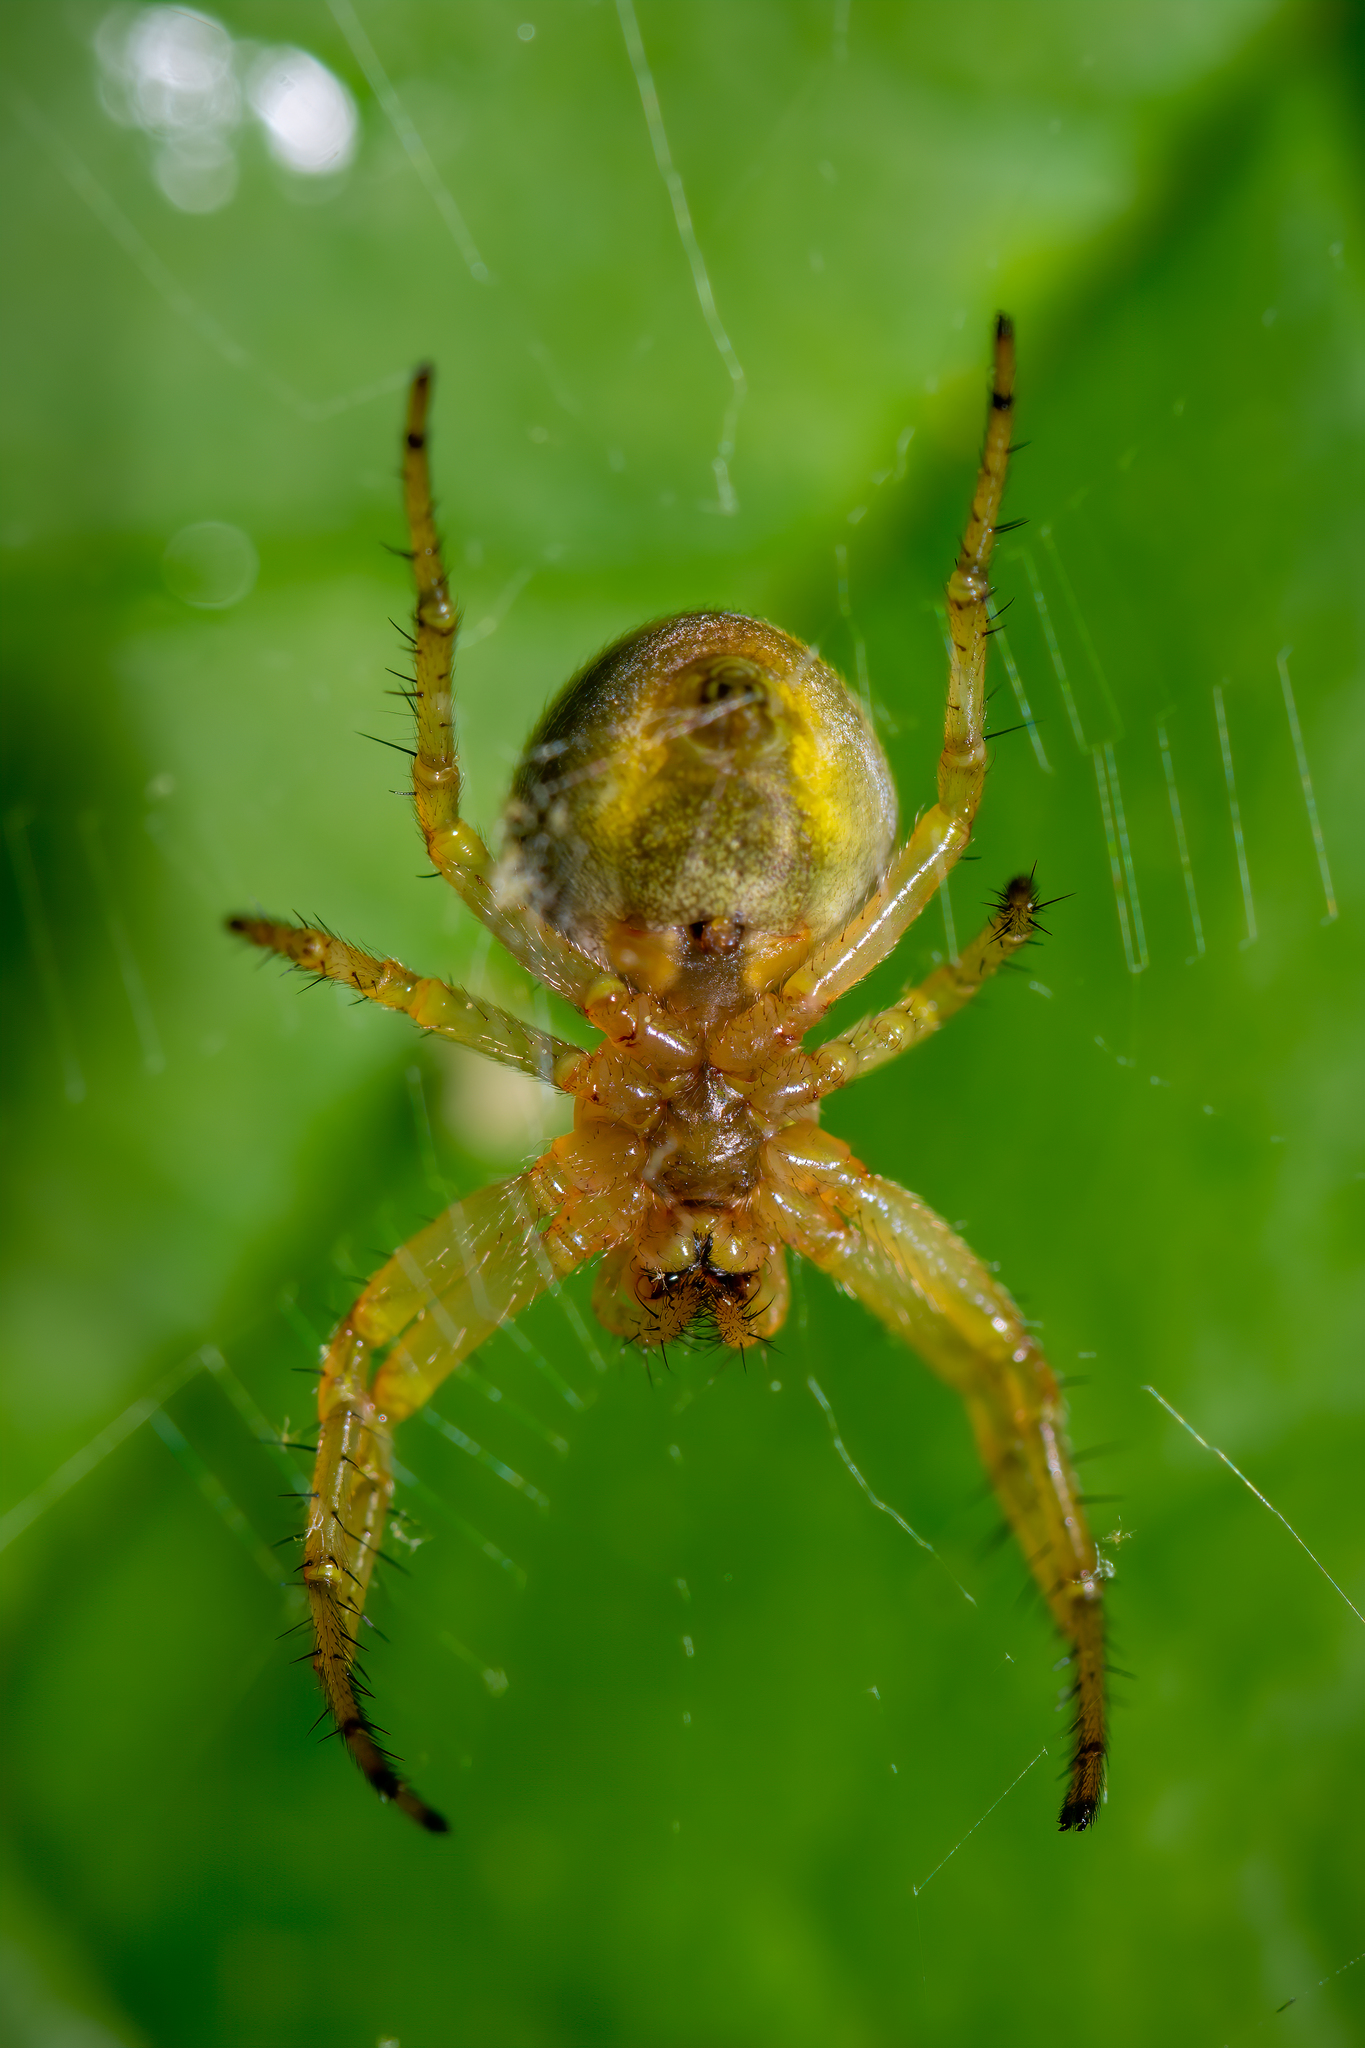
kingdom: Animalia
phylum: Arthropoda
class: Arachnida
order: Araneae
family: Araneidae
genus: Araniella
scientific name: Araniella displicata
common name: Sixspotted orb weaver
